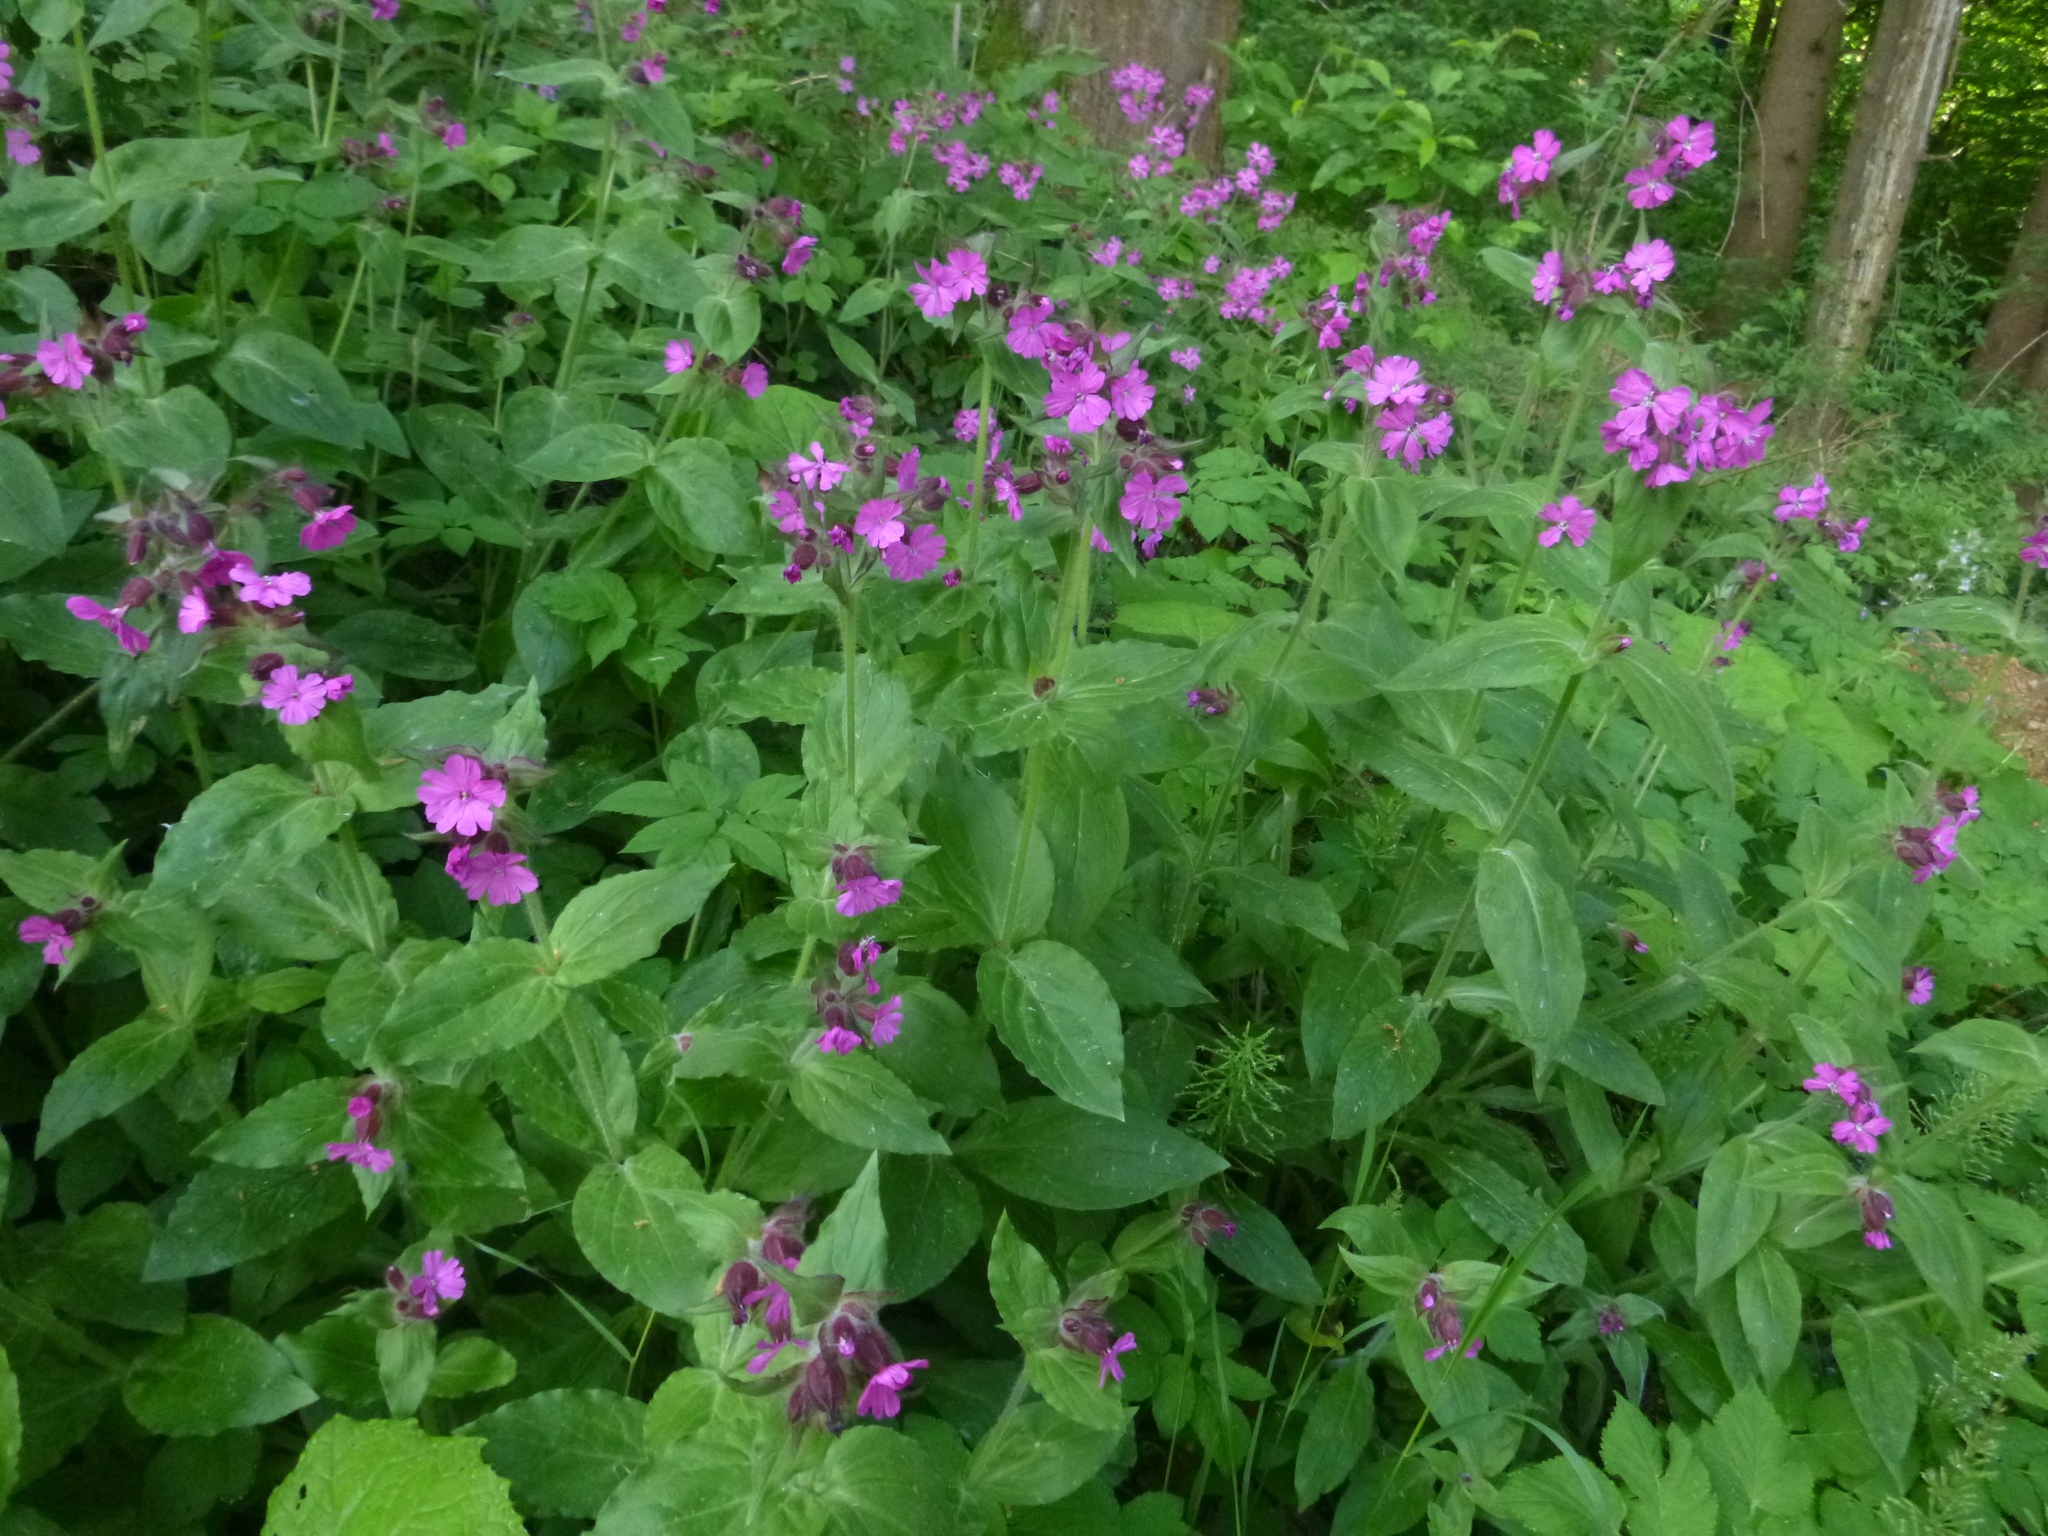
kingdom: Plantae
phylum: Tracheophyta
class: Magnoliopsida
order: Caryophyllales
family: Caryophyllaceae
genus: Silene
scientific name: Silene dioica
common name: Red campion
